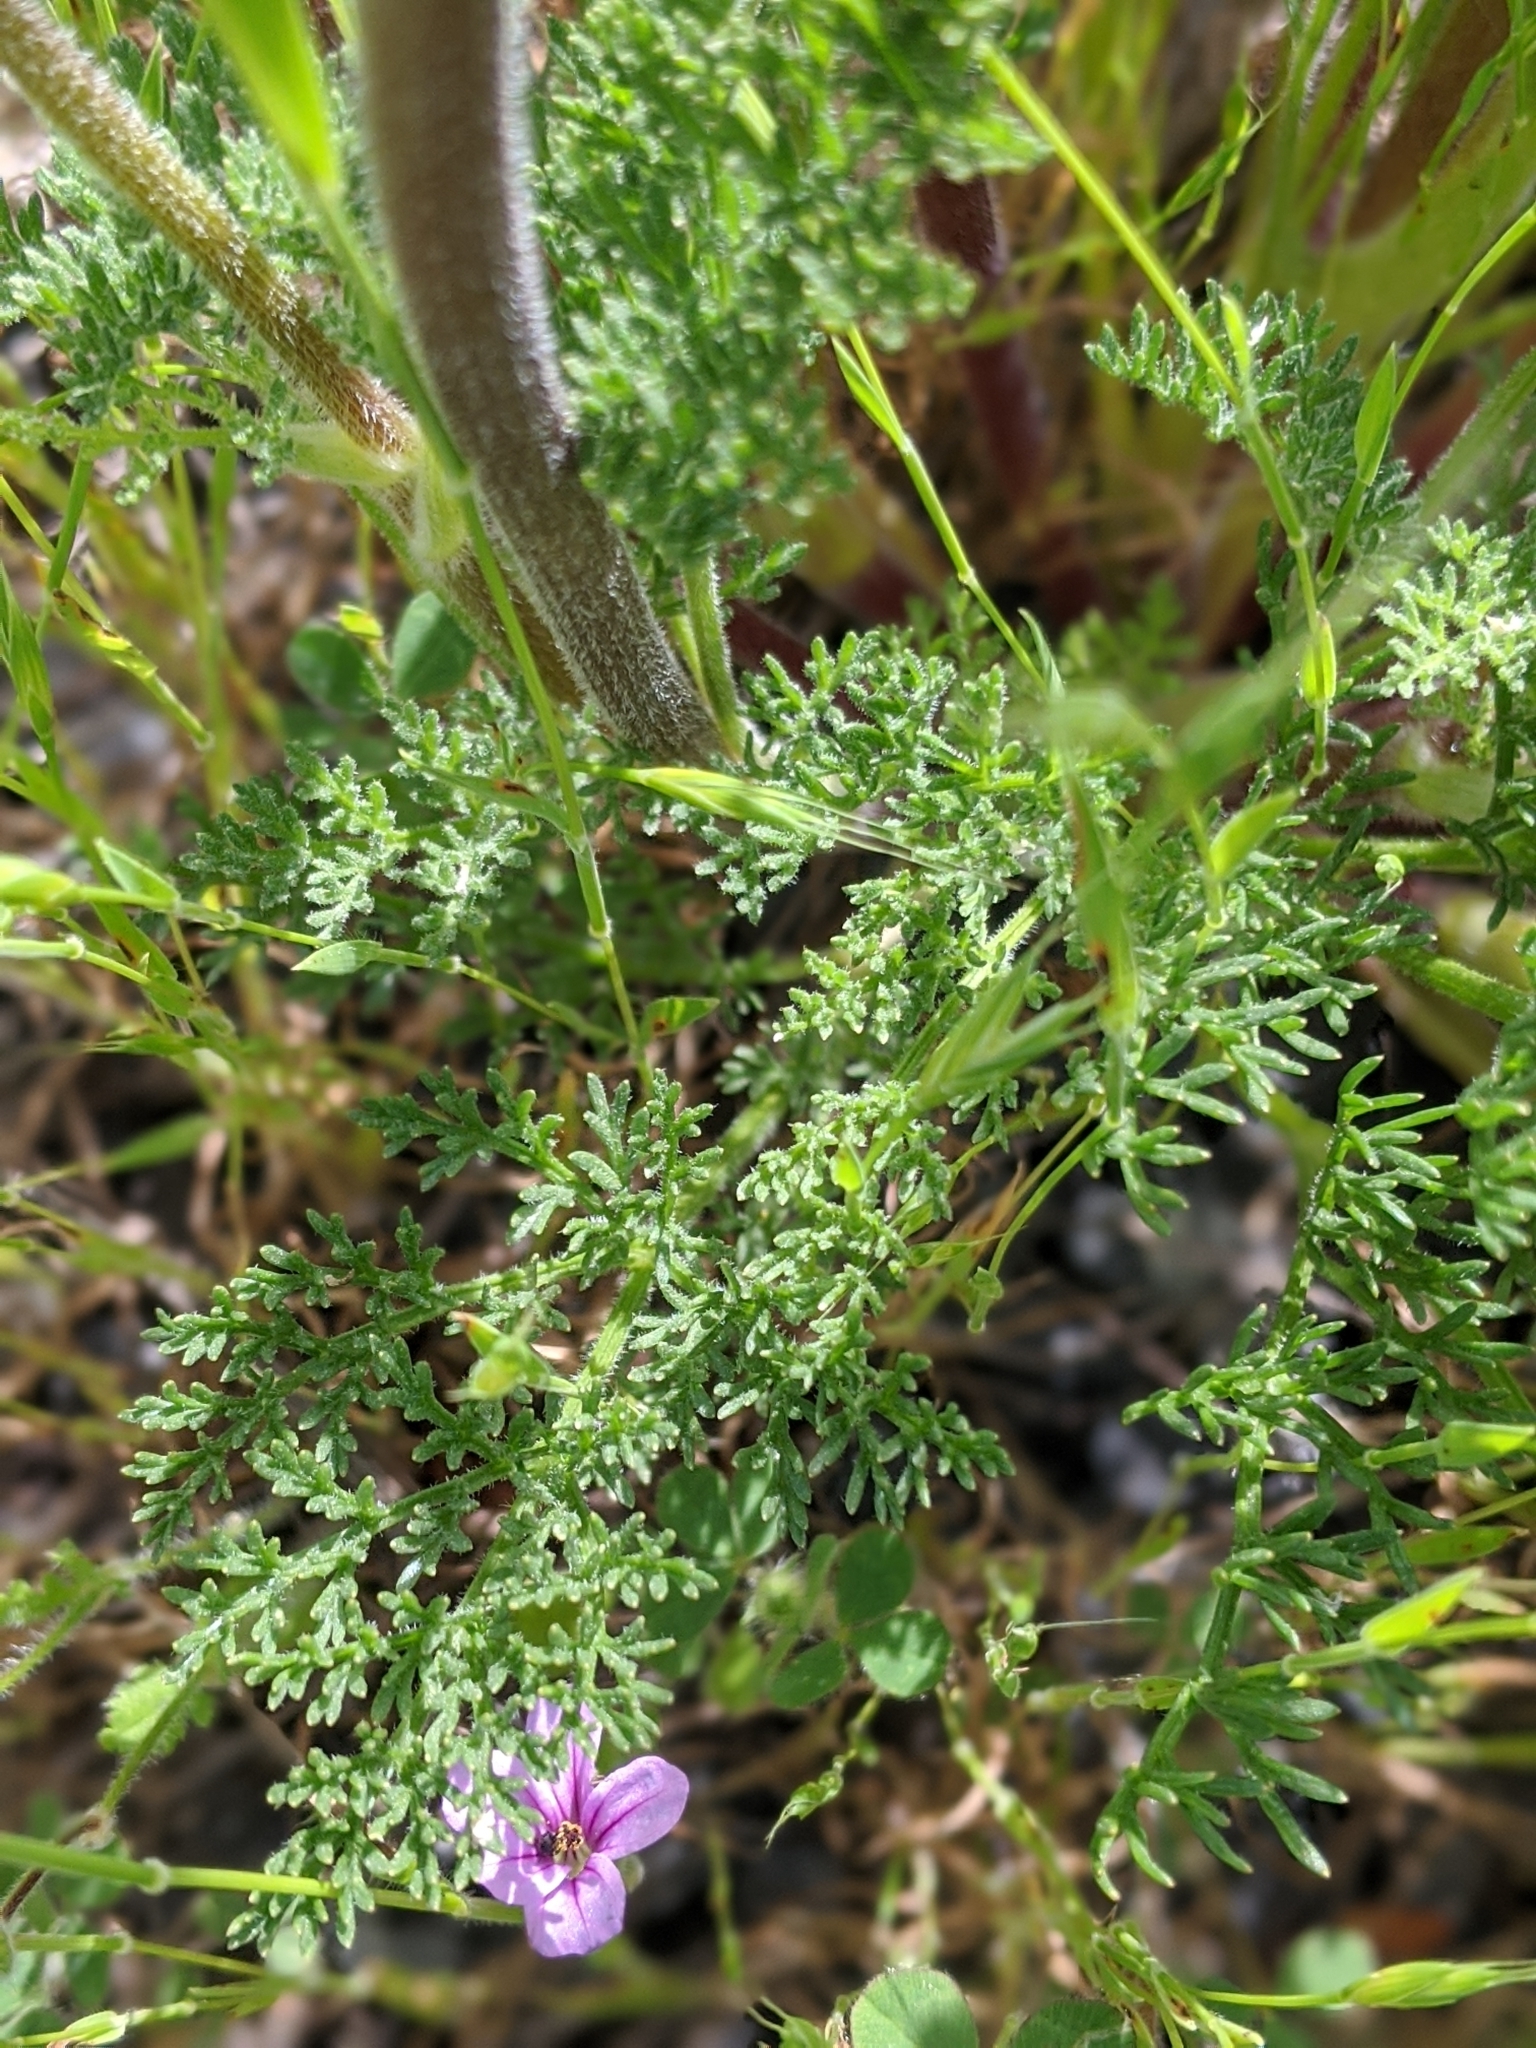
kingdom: Plantae
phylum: Tracheophyta
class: Magnoliopsida
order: Apiales
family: Apiaceae
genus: Lomatium
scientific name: Lomatium dasycarpum
